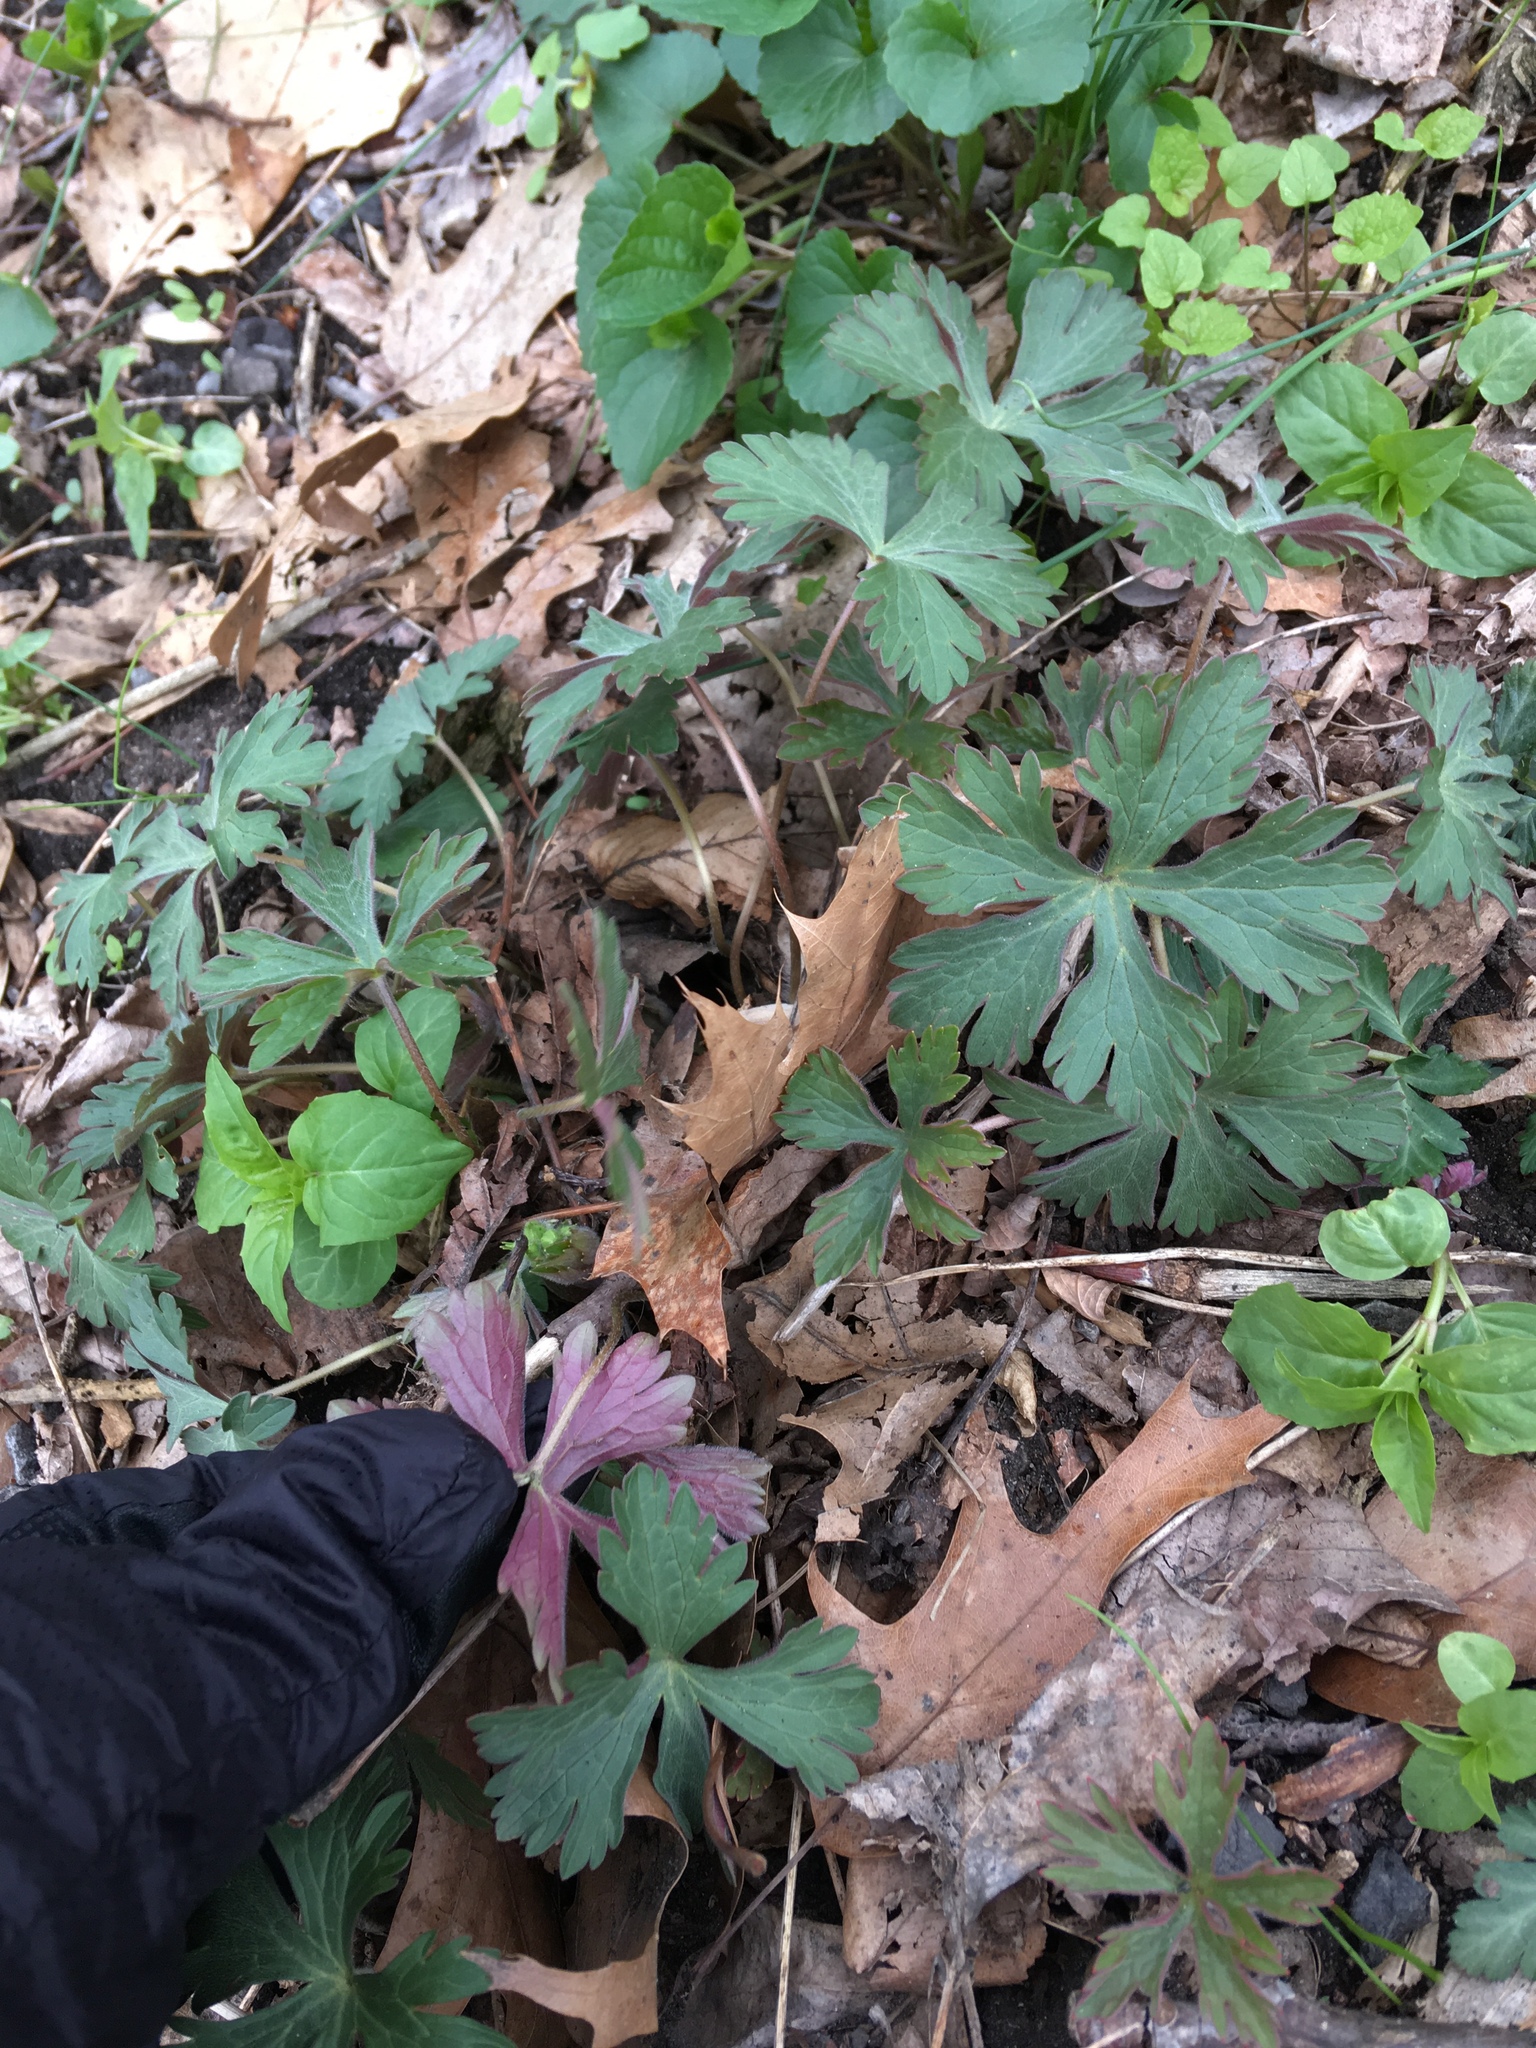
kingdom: Plantae
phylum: Tracheophyta
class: Magnoliopsida
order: Geraniales
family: Geraniaceae
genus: Geranium
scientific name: Geranium maculatum
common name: Spotted geranium
